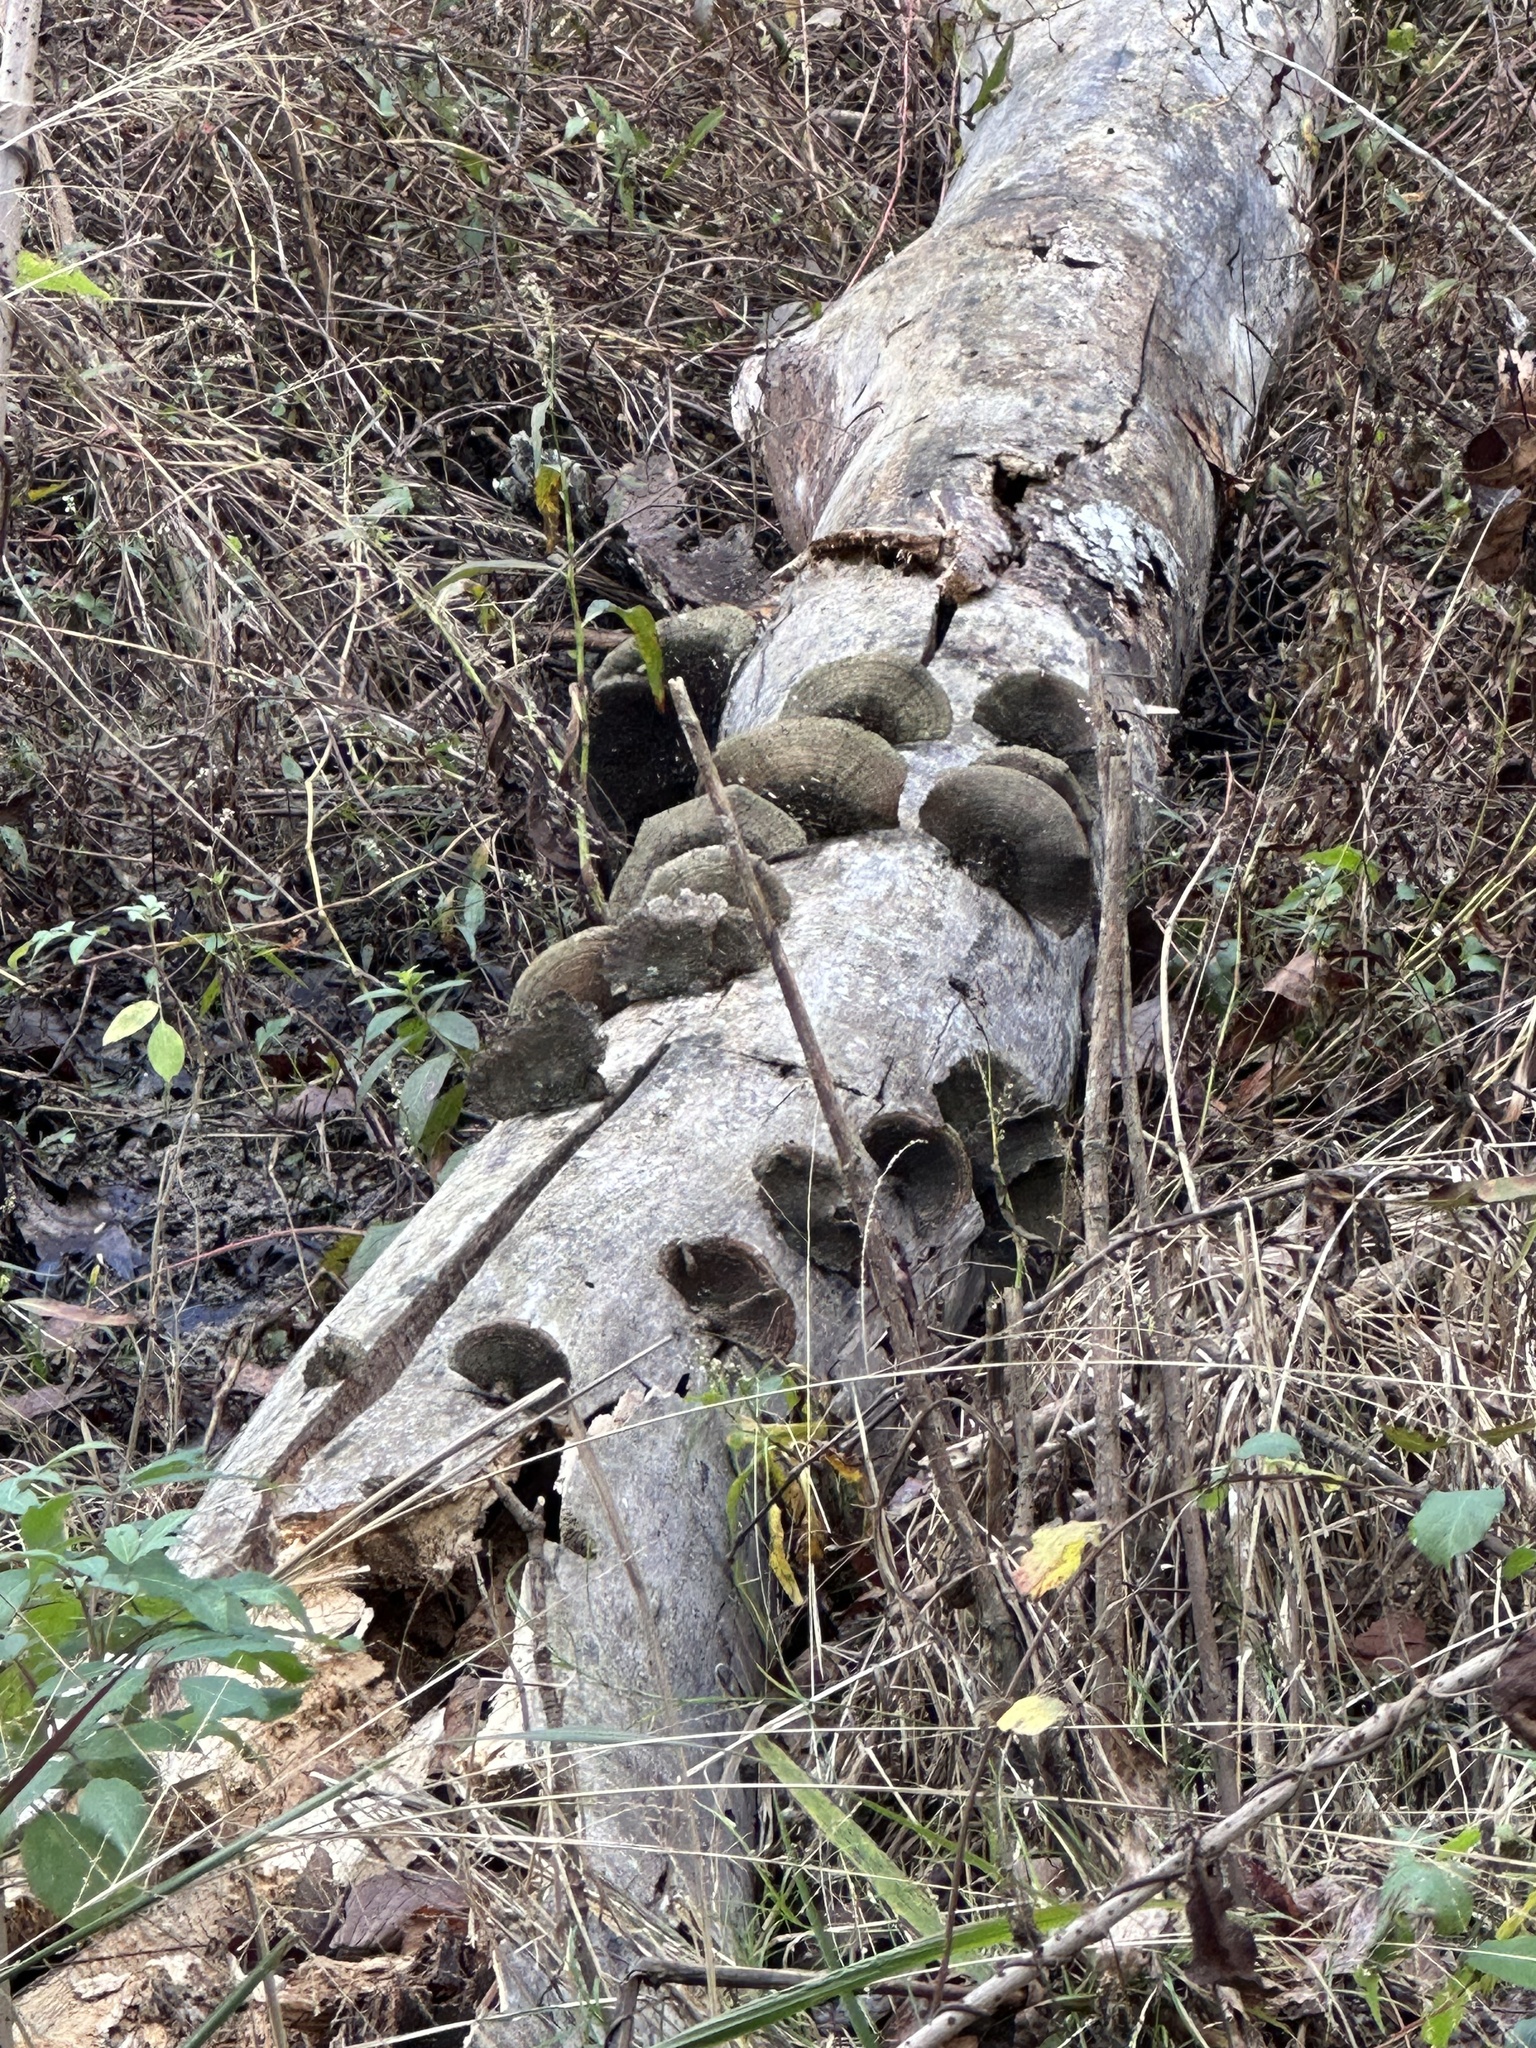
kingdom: Fungi
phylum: Basidiomycota
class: Agaricomycetes
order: Polyporales
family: Cerrenaceae
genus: Cerrena
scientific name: Cerrena hydnoides
